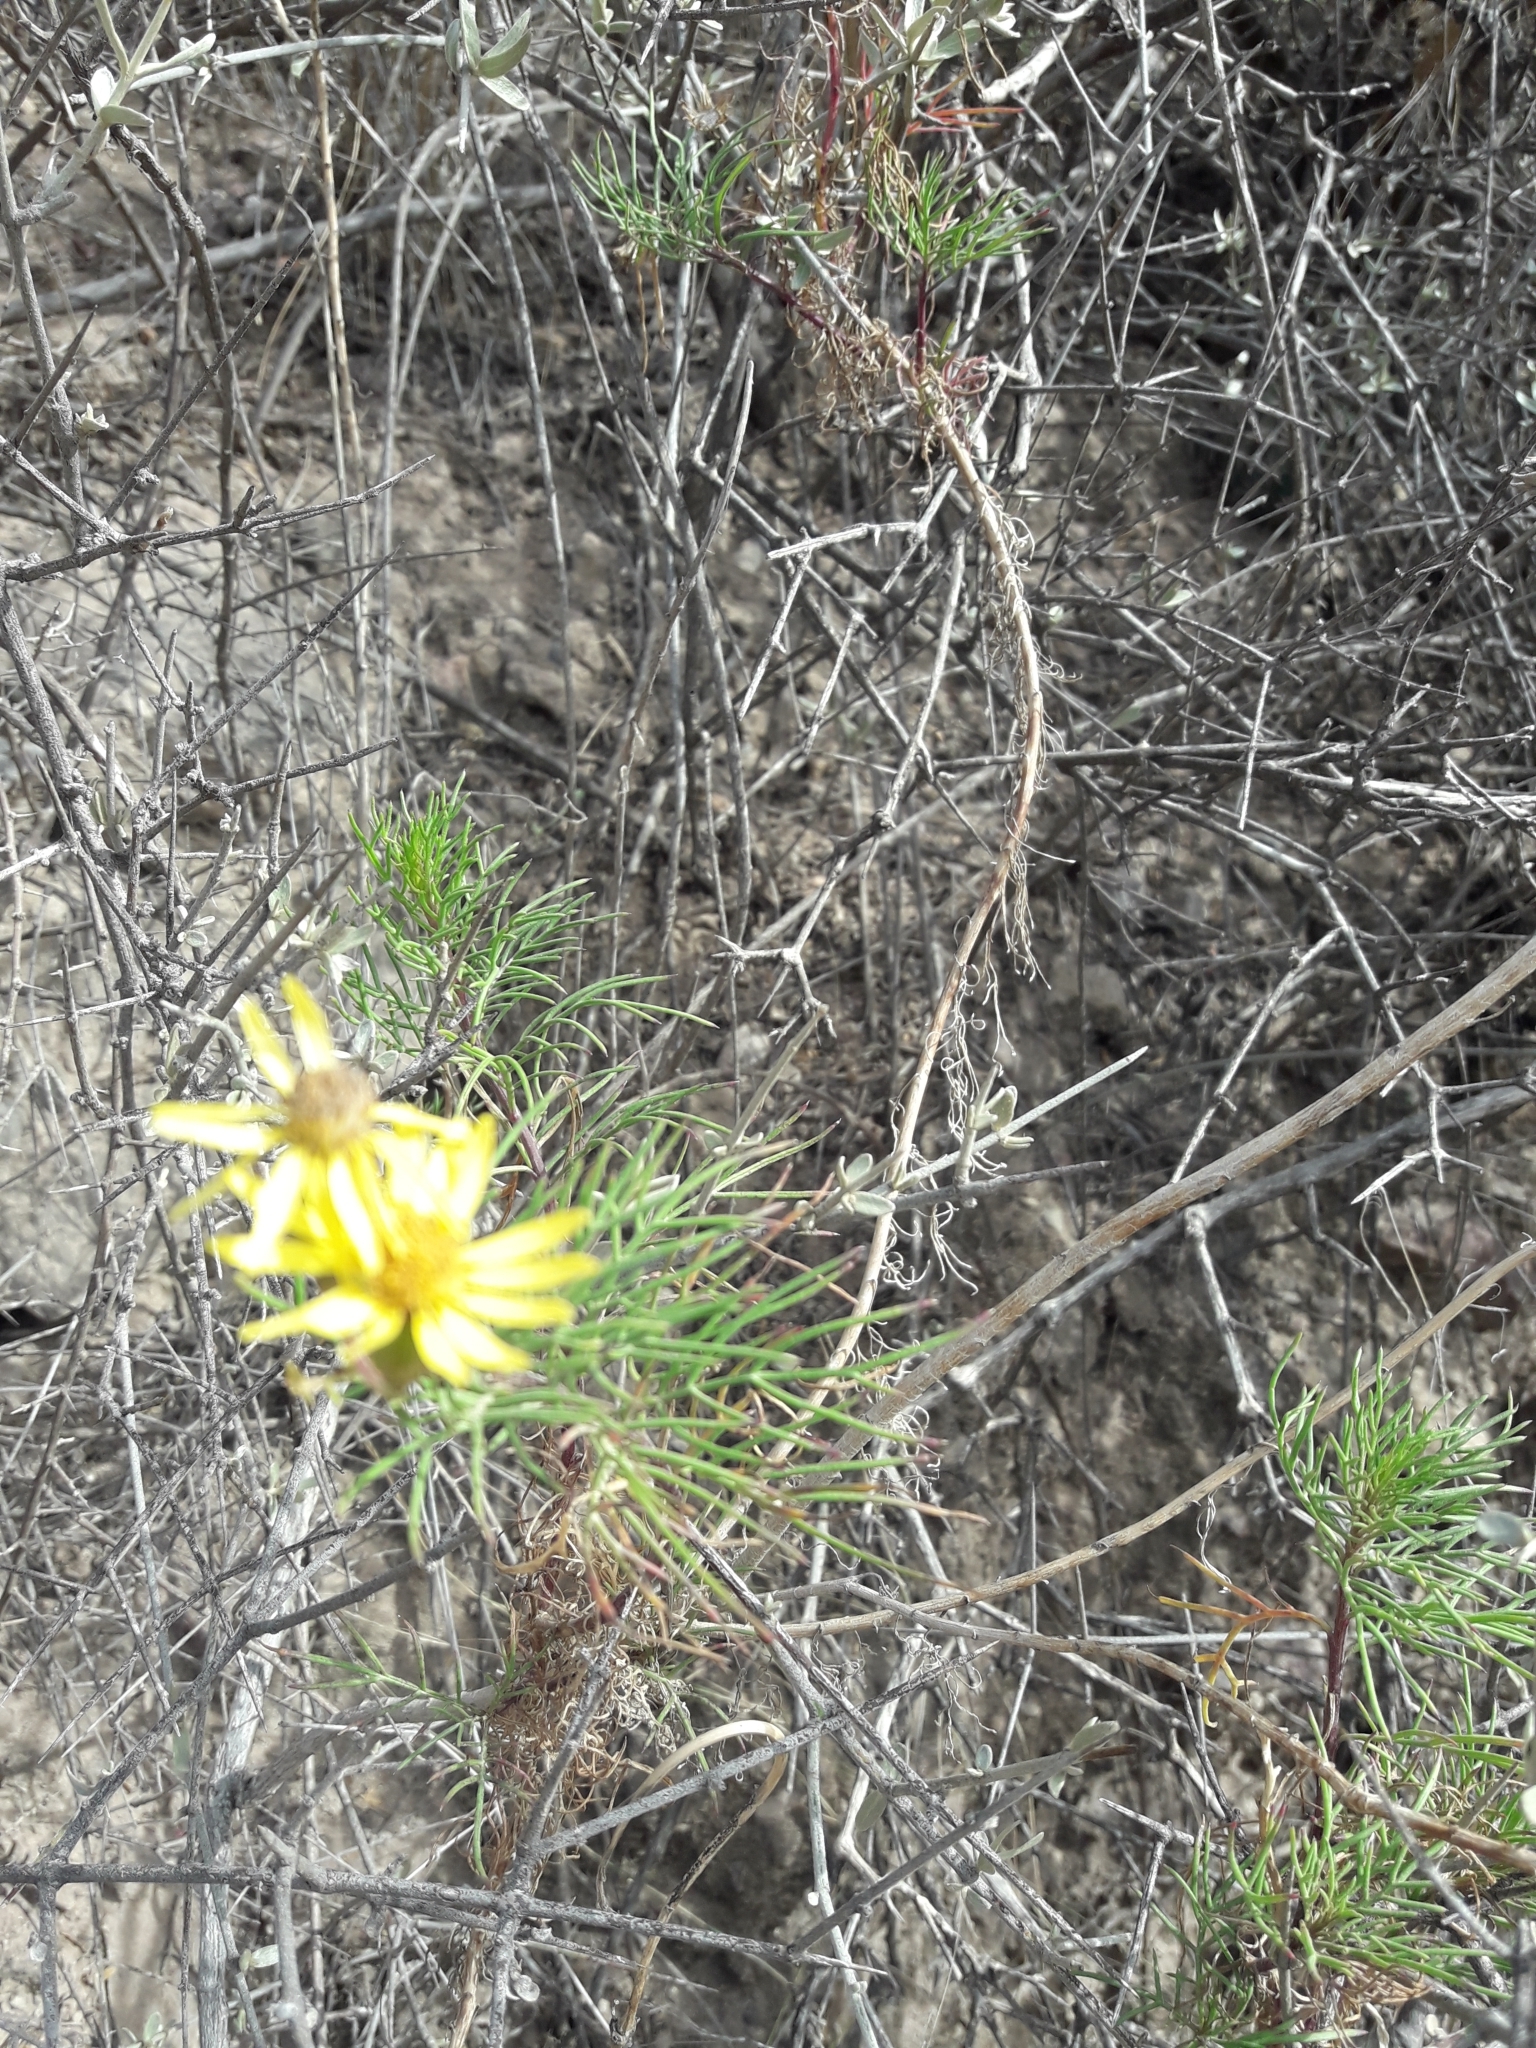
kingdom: Plantae
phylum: Tracheophyta
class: Magnoliopsida
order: Asterales
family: Asteraceae
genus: Senecio
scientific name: Senecio subulatus
